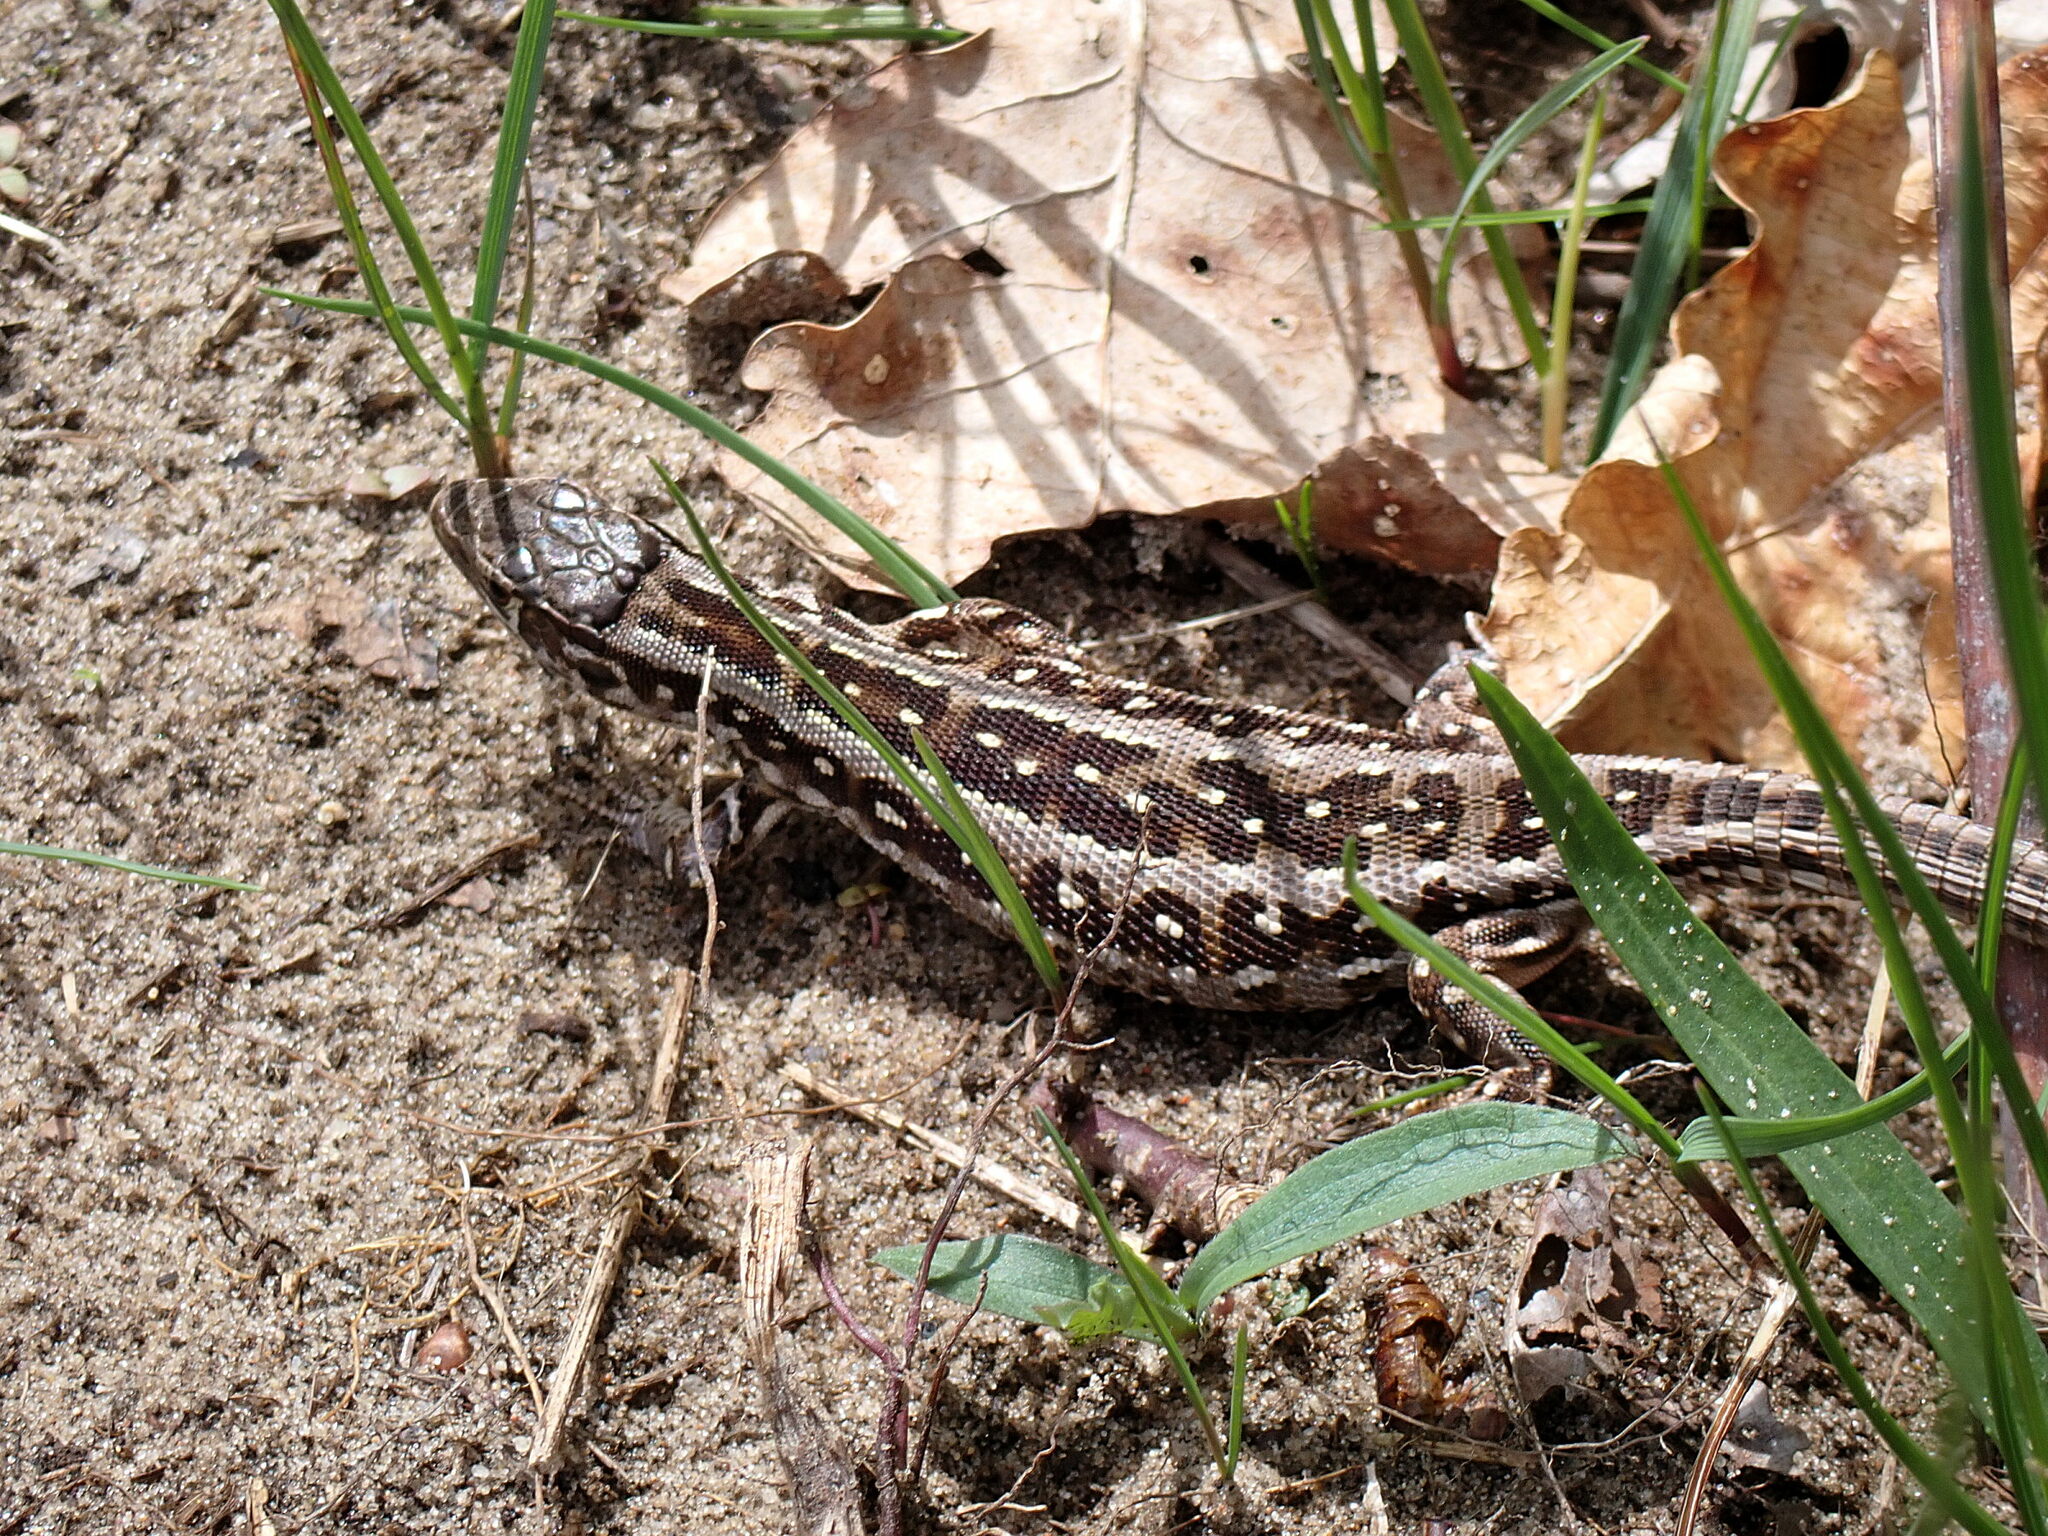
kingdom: Animalia
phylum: Chordata
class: Squamata
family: Lacertidae
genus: Lacerta
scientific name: Lacerta agilis
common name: Sand lizard
